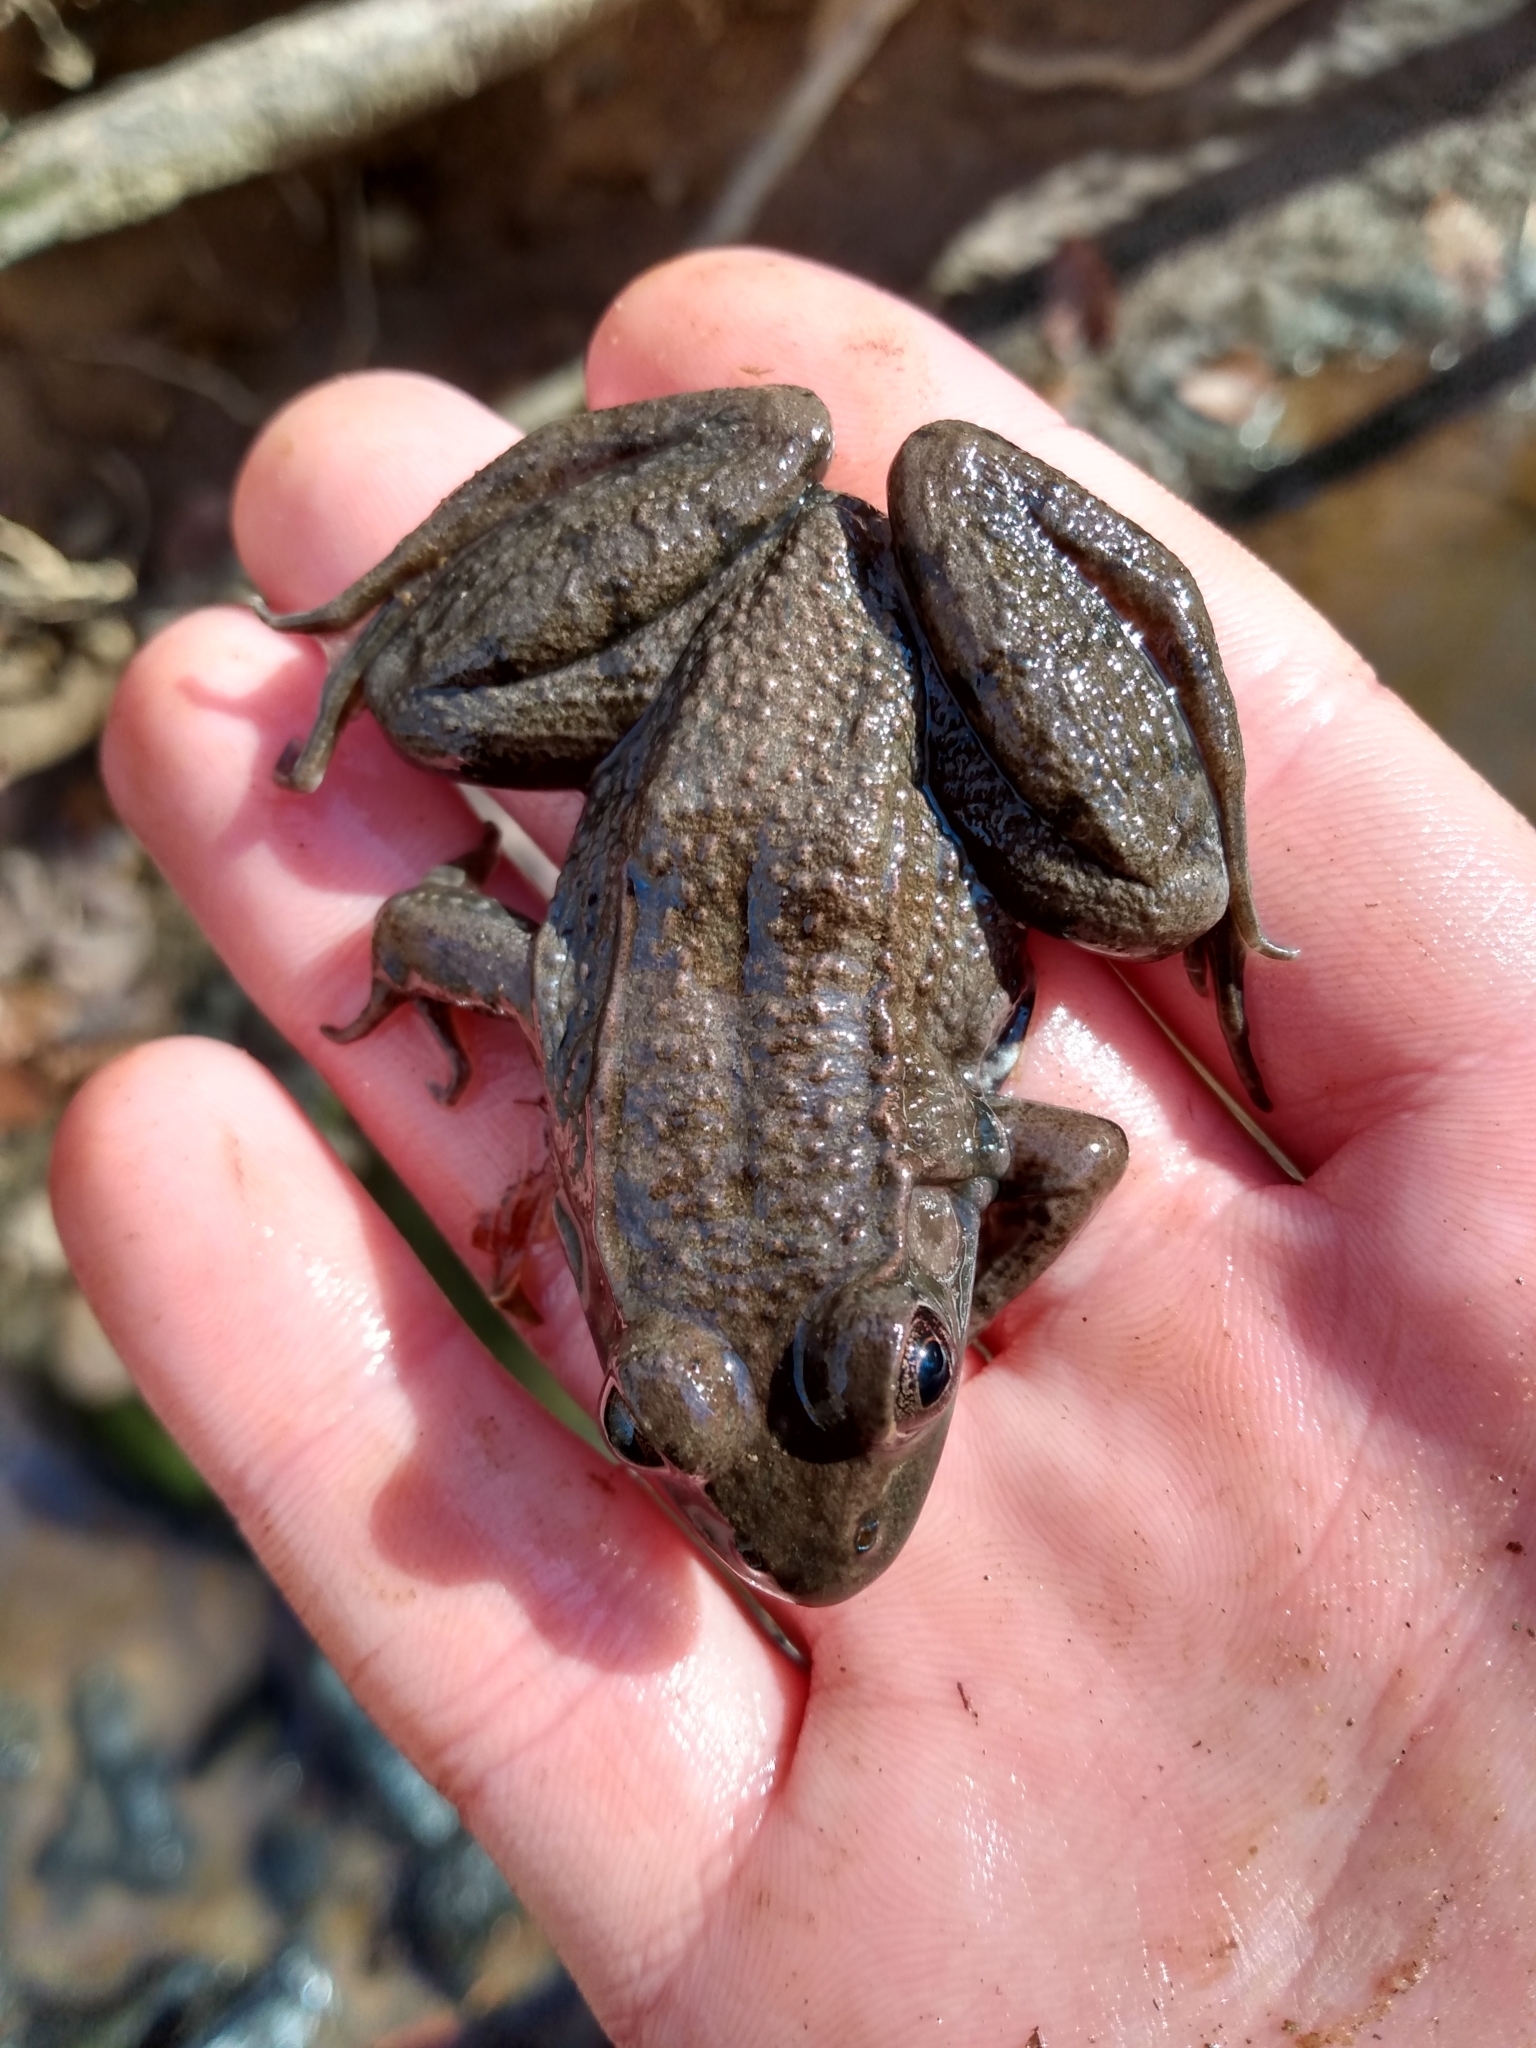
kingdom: Animalia
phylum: Chordata
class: Amphibia
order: Anura
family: Ranidae
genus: Lithobates
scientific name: Lithobates clamitans
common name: Green frog
